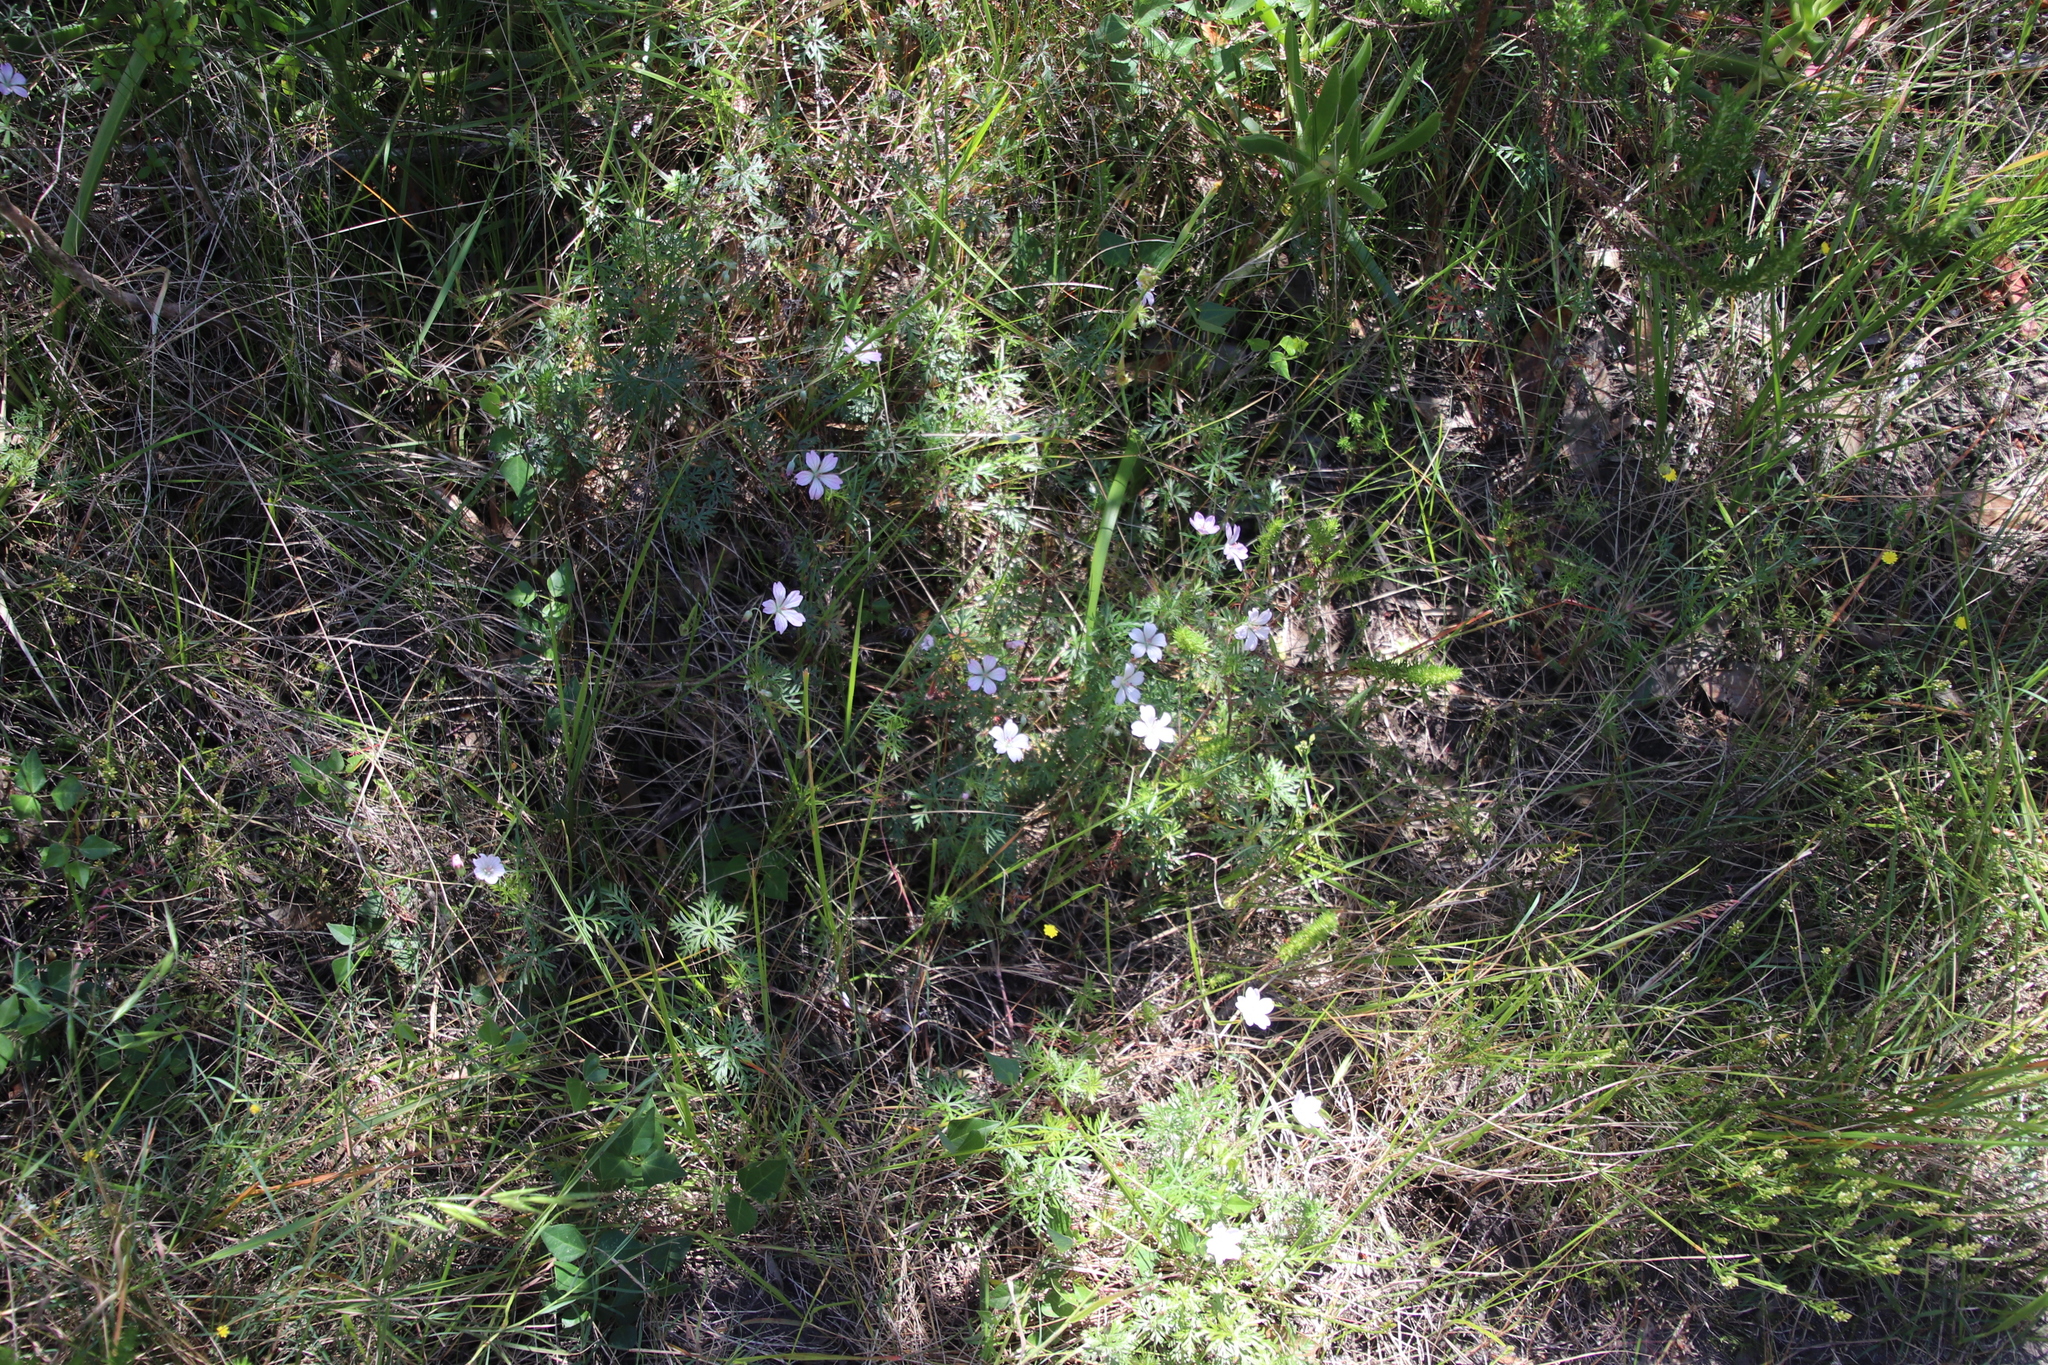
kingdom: Plantae
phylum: Tracheophyta
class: Magnoliopsida
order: Geraniales
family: Geraniaceae
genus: Geranium
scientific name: Geranium incanum
